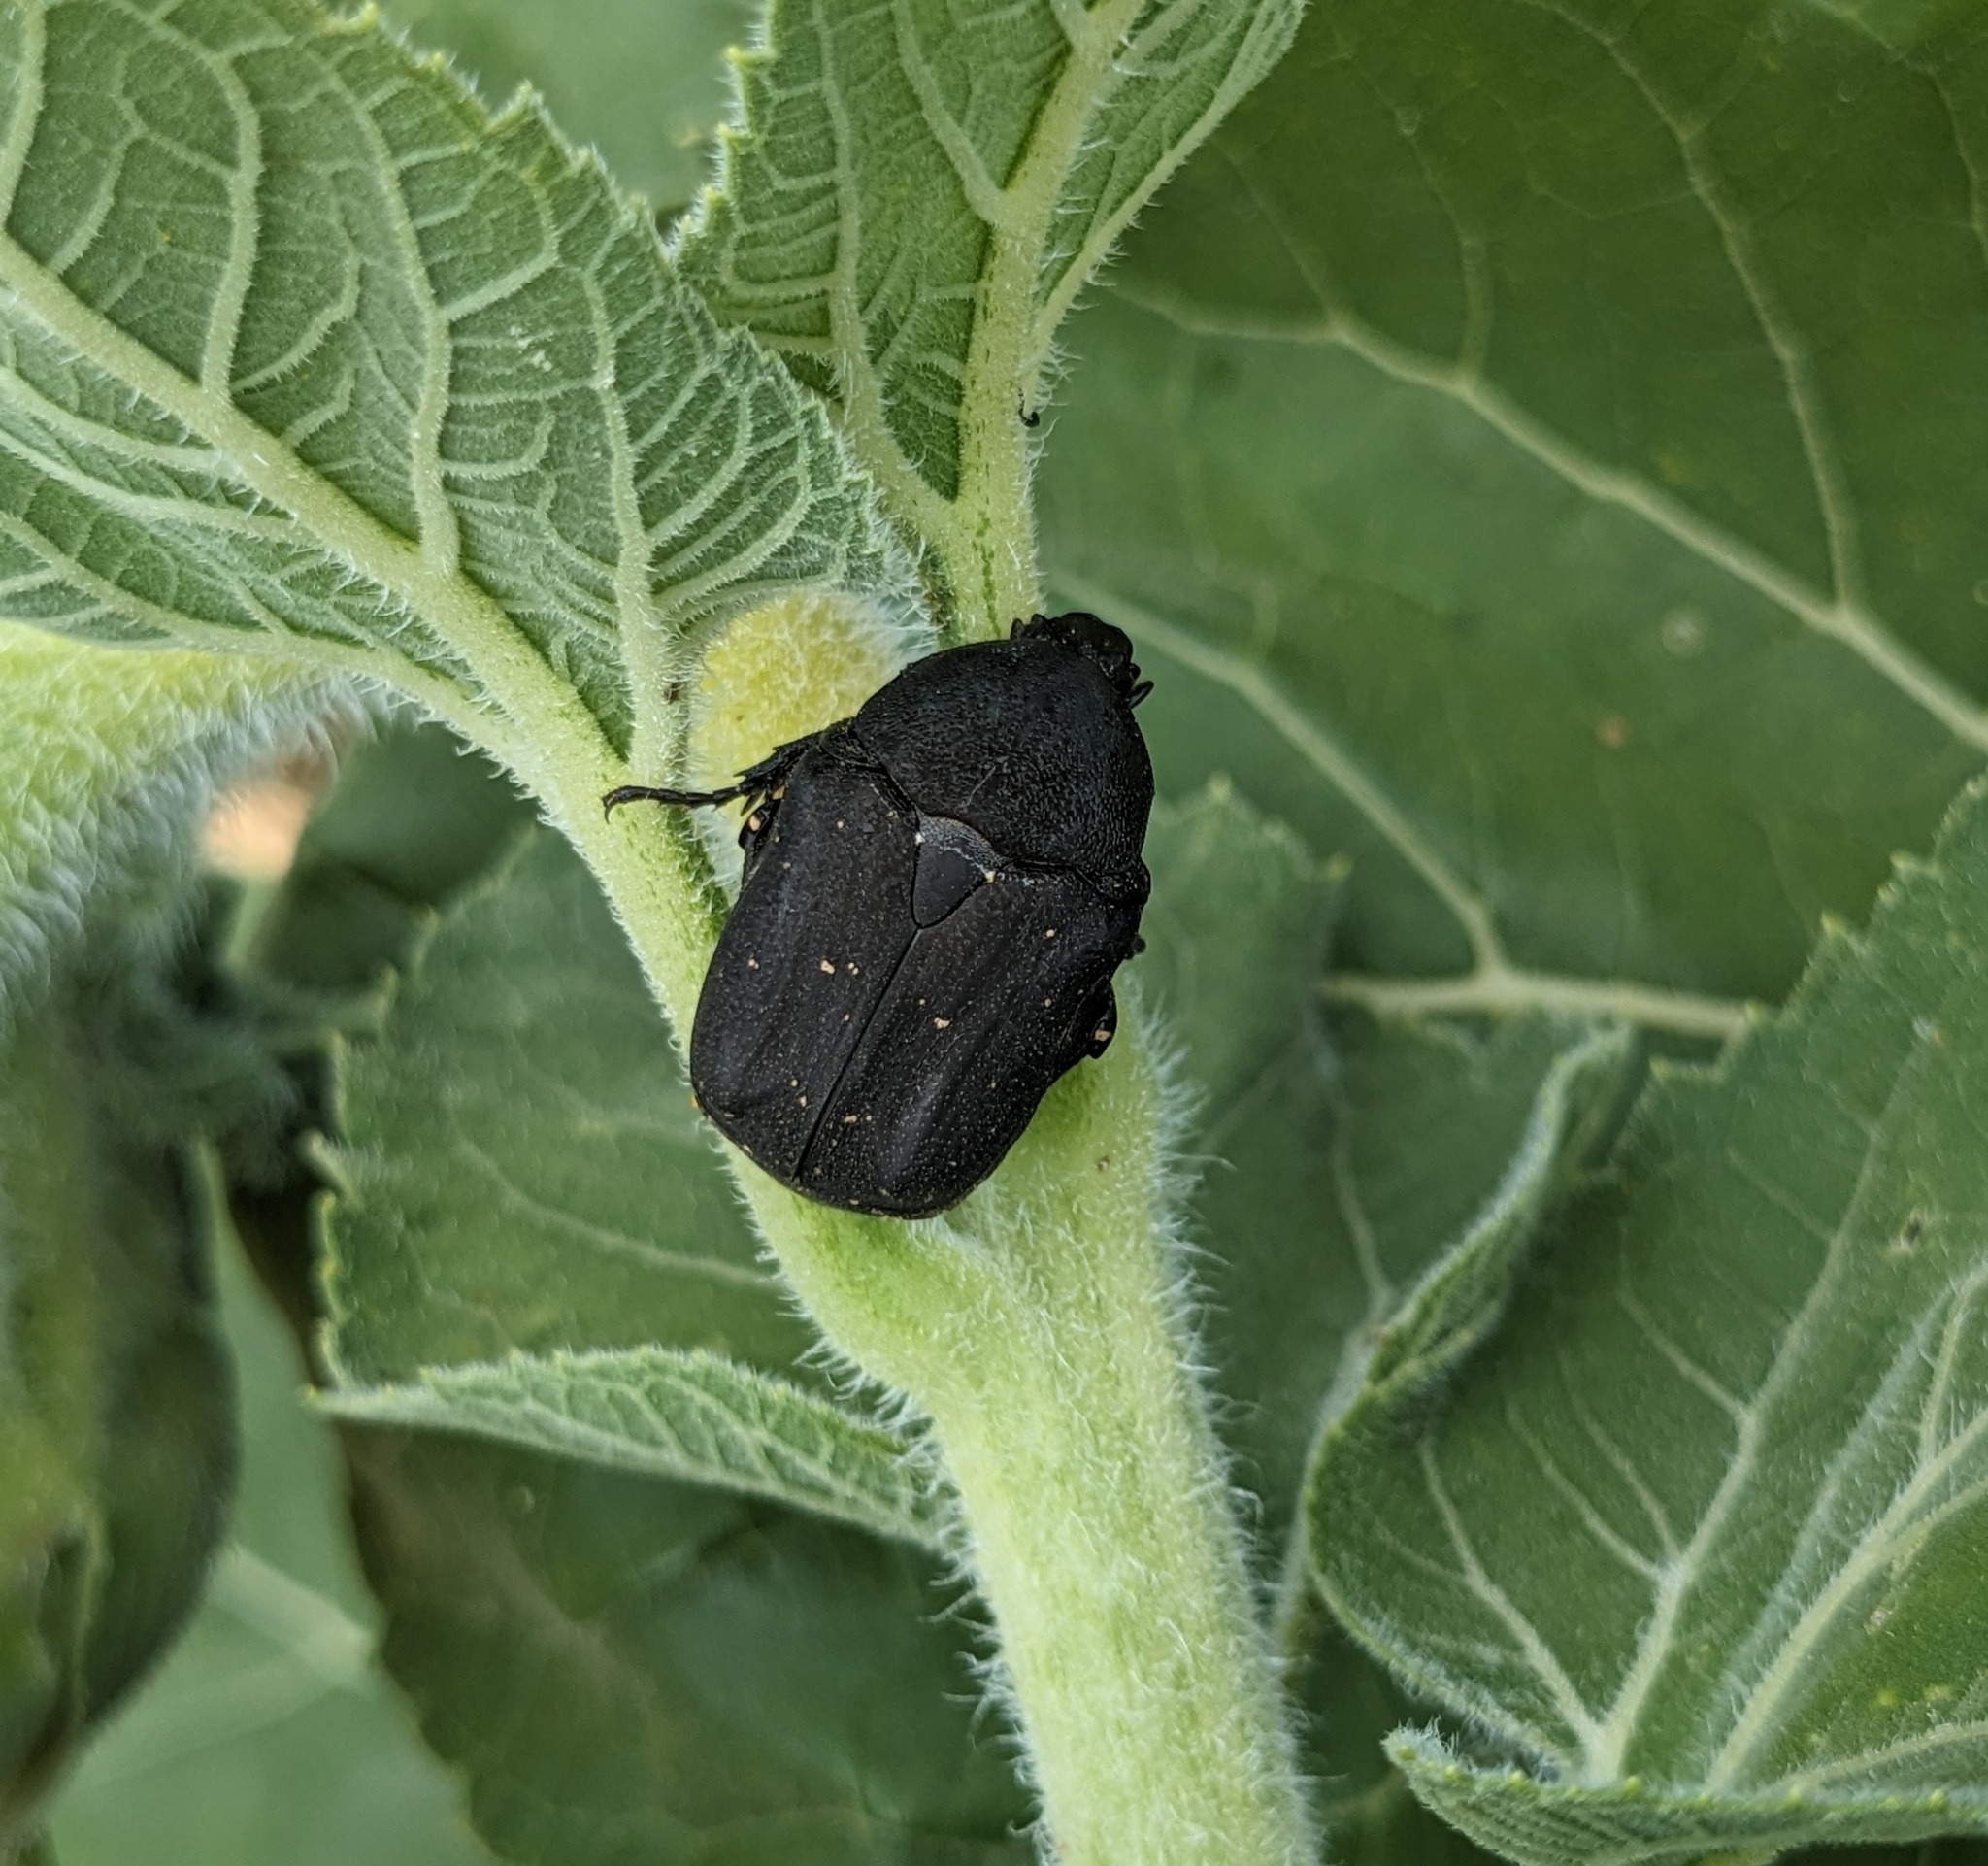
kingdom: Animalia
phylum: Arthropoda
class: Insecta
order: Coleoptera
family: Scarabaeidae
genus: Protaetia
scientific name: Protaetia morio
